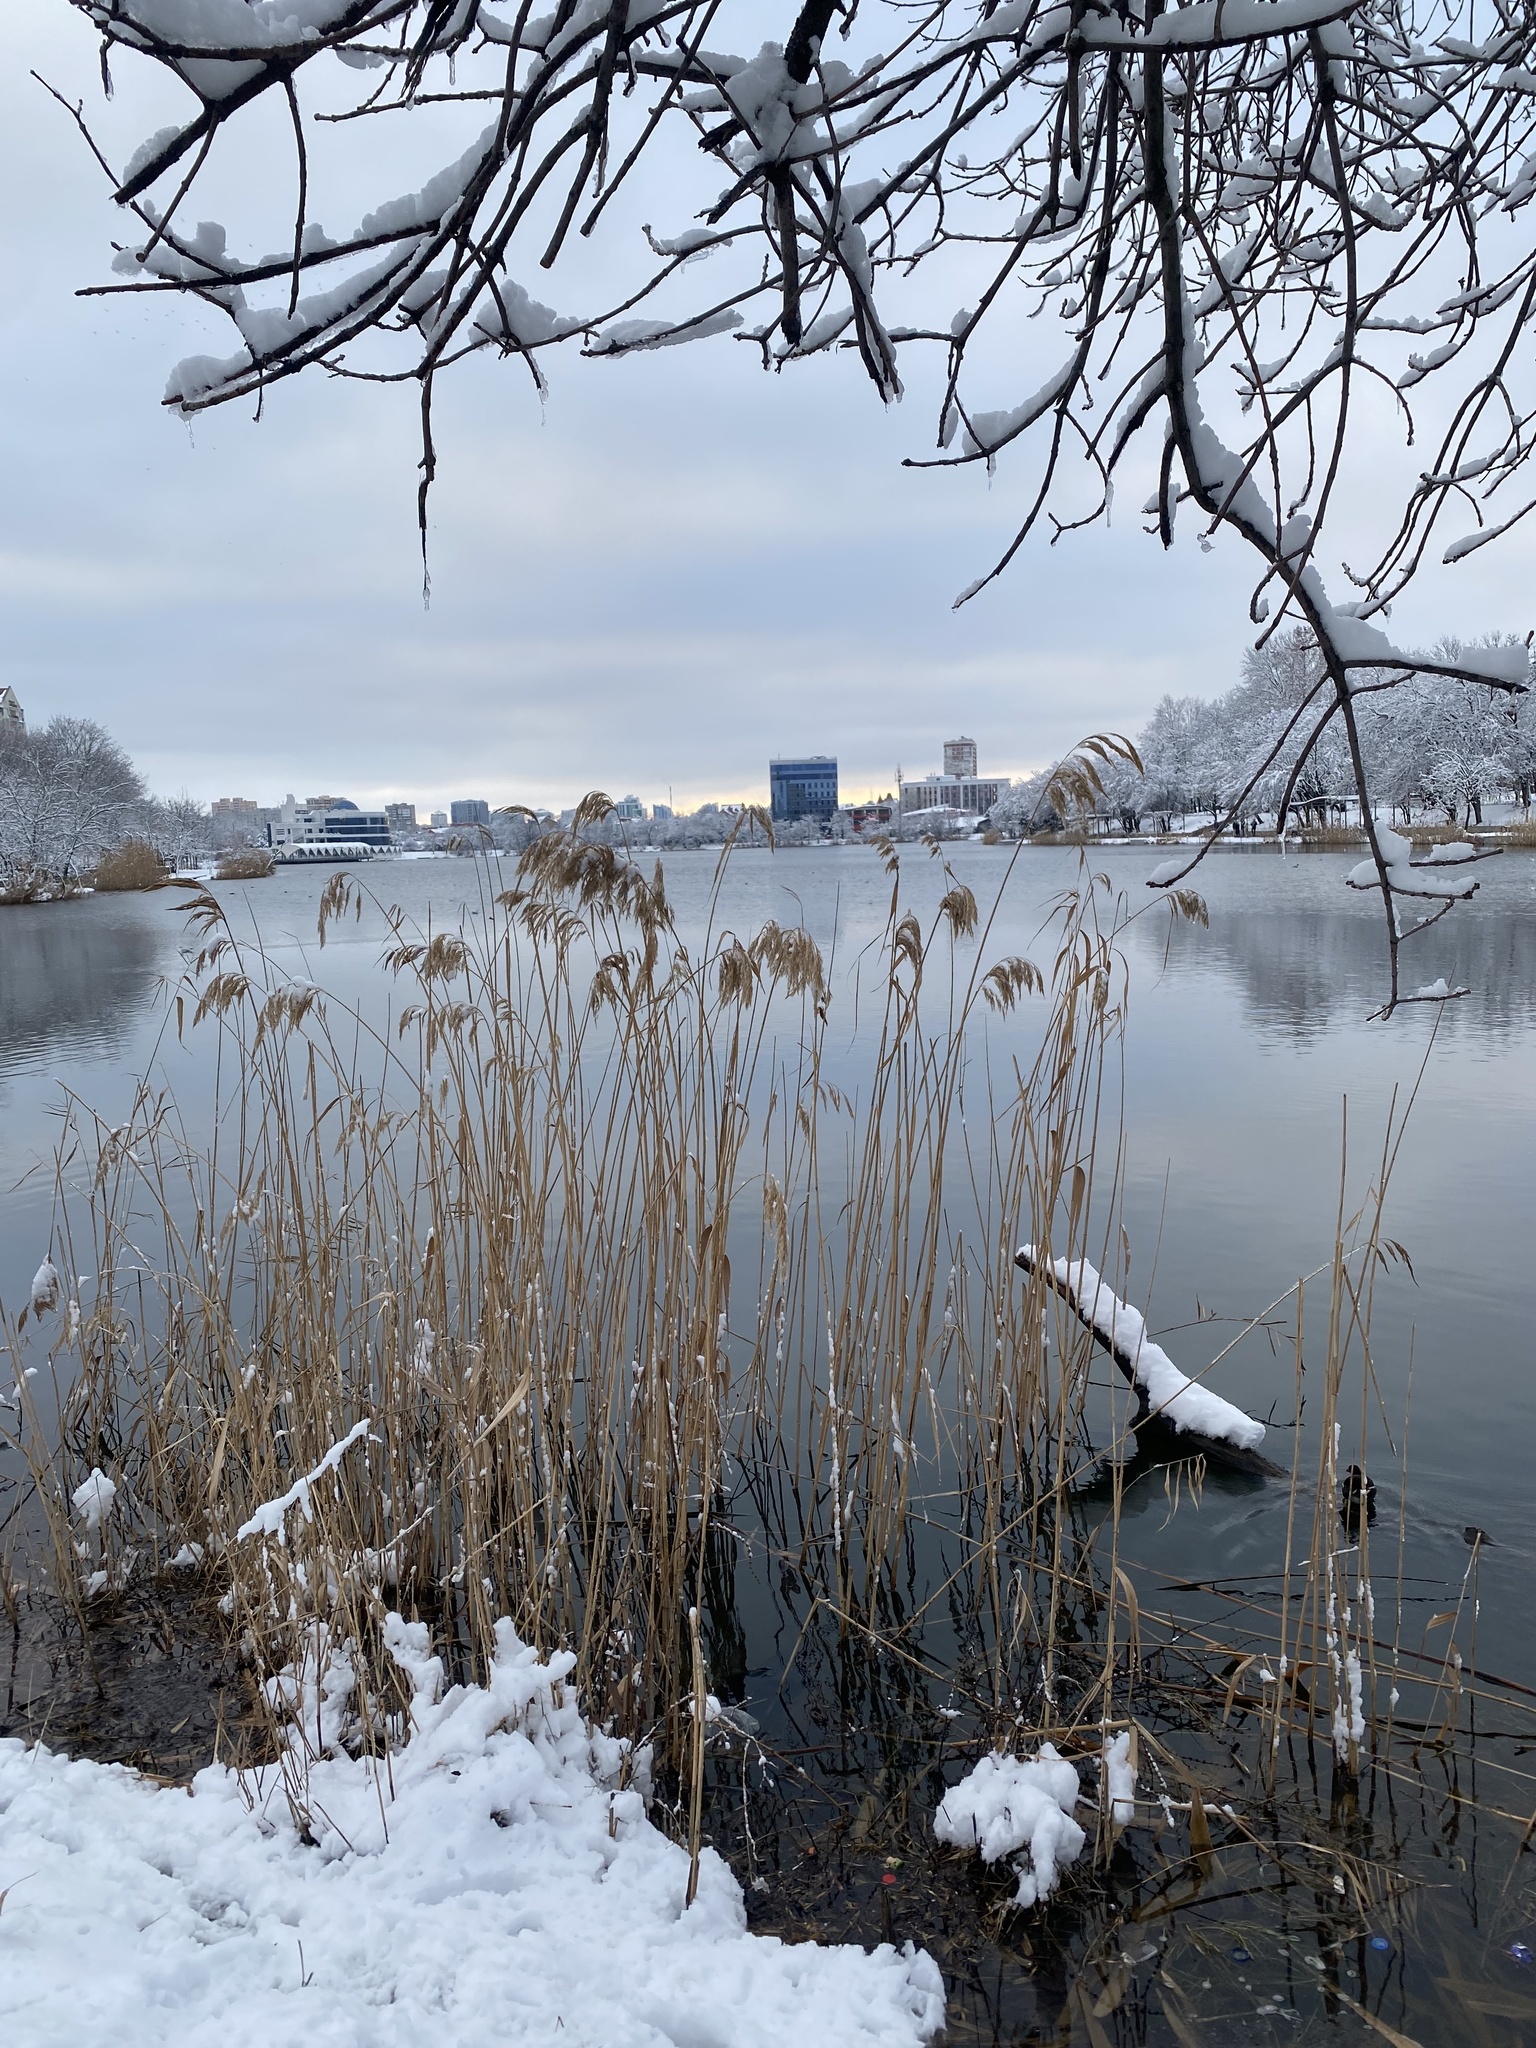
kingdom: Plantae
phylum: Tracheophyta
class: Liliopsida
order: Poales
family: Poaceae
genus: Phragmites
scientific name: Phragmites australis
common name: Common reed
